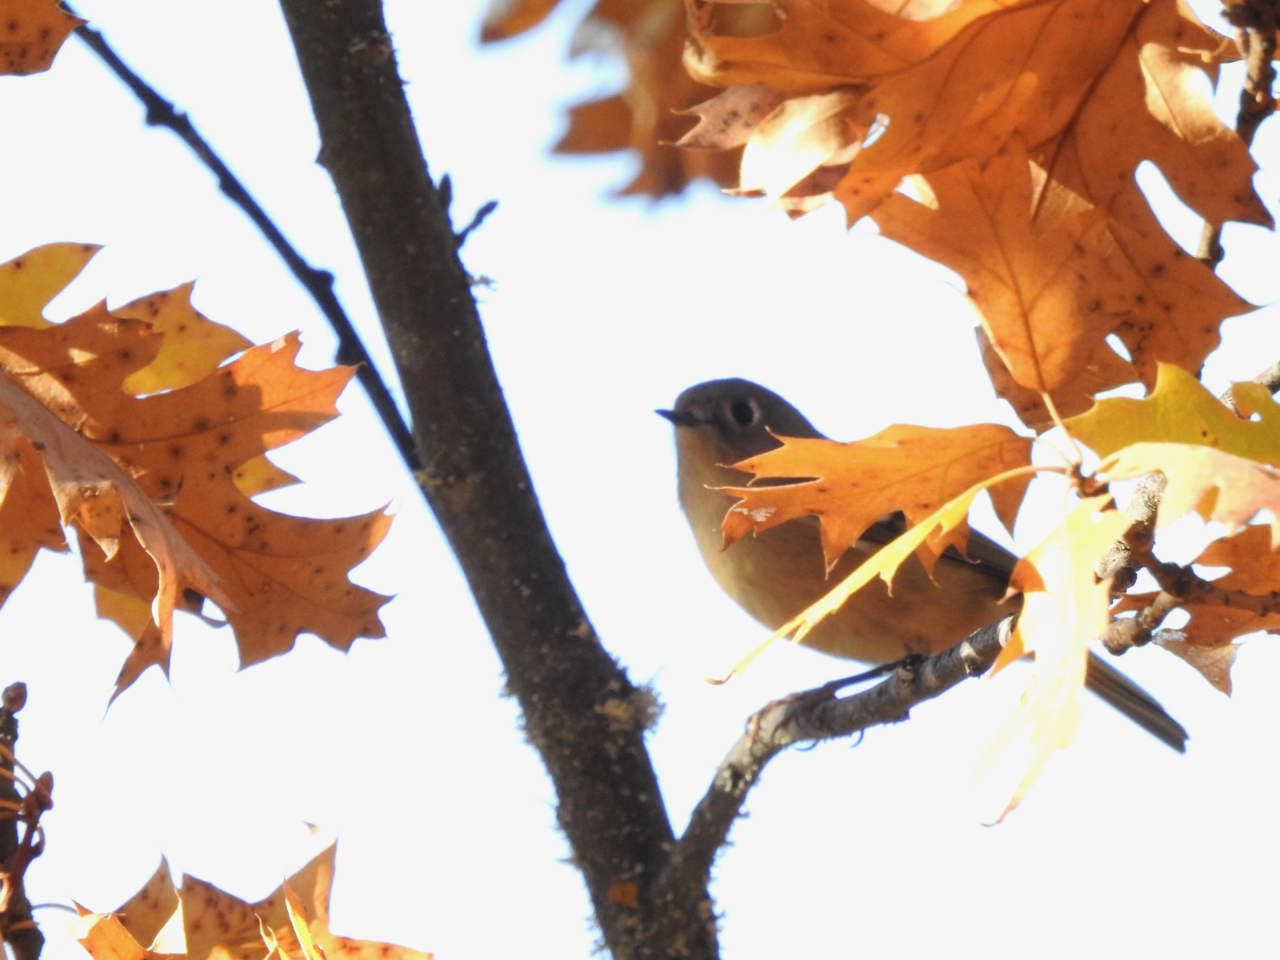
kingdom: Animalia
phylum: Chordata
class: Aves
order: Passeriformes
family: Regulidae
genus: Regulus
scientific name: Regulus calendula
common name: Ruby-crowned kinglet
